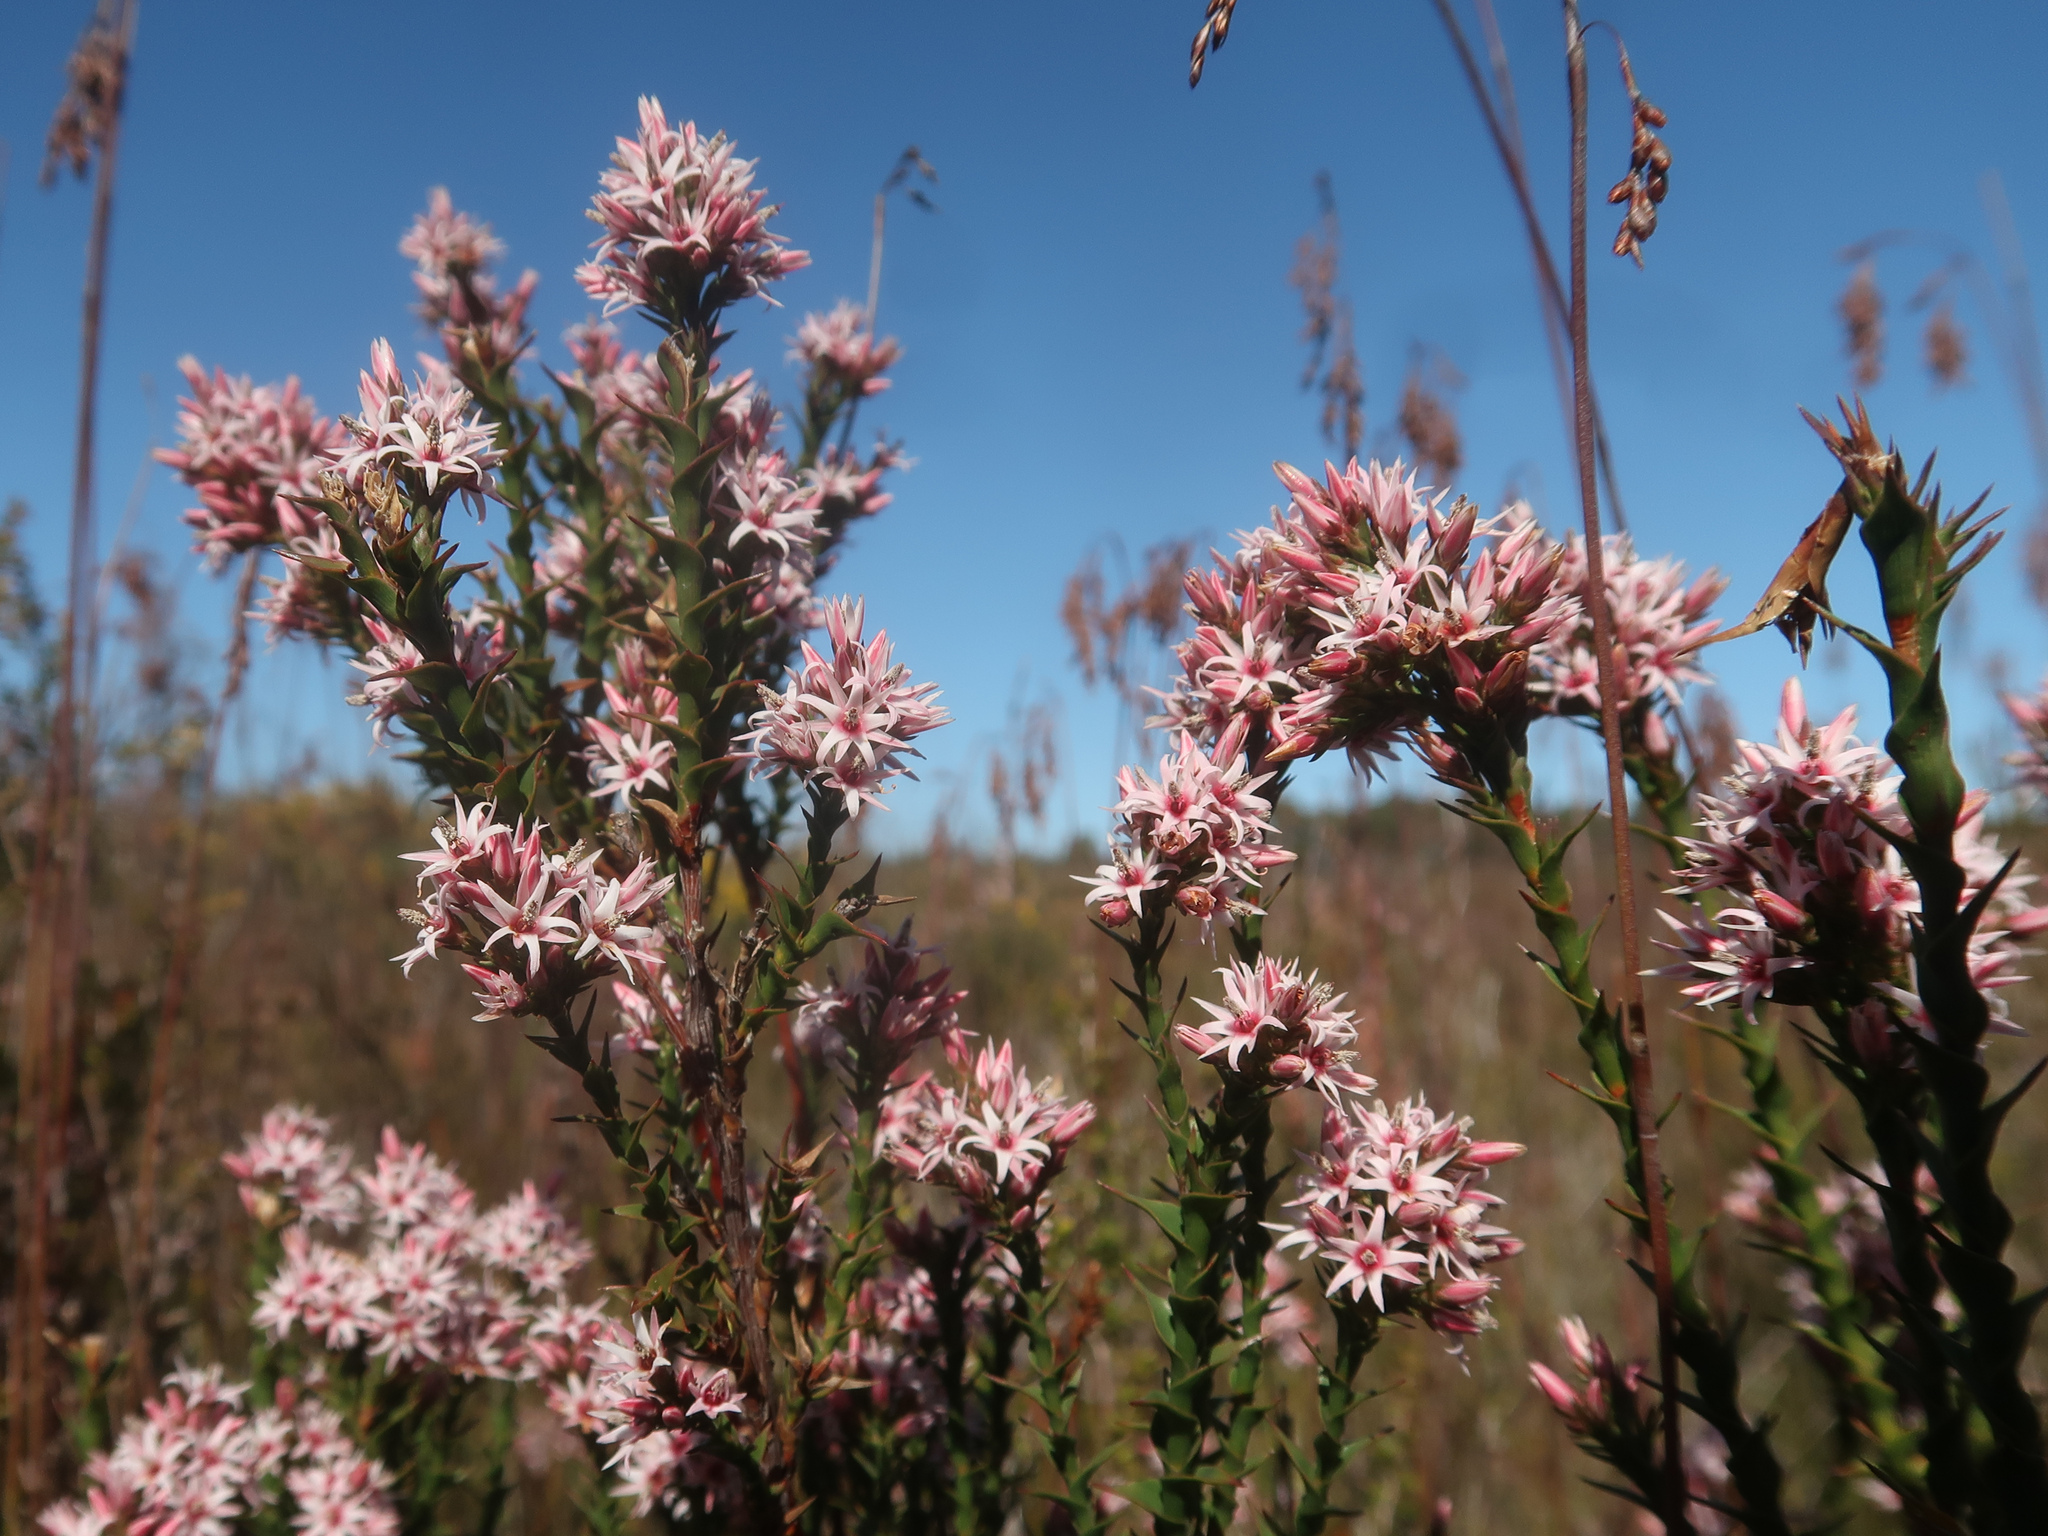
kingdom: Plantae
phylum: Tracheophyta
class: Magnoliopsida
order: Ericales
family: Ericaceae
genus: Sprengelia
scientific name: Sprengelia incarnata
